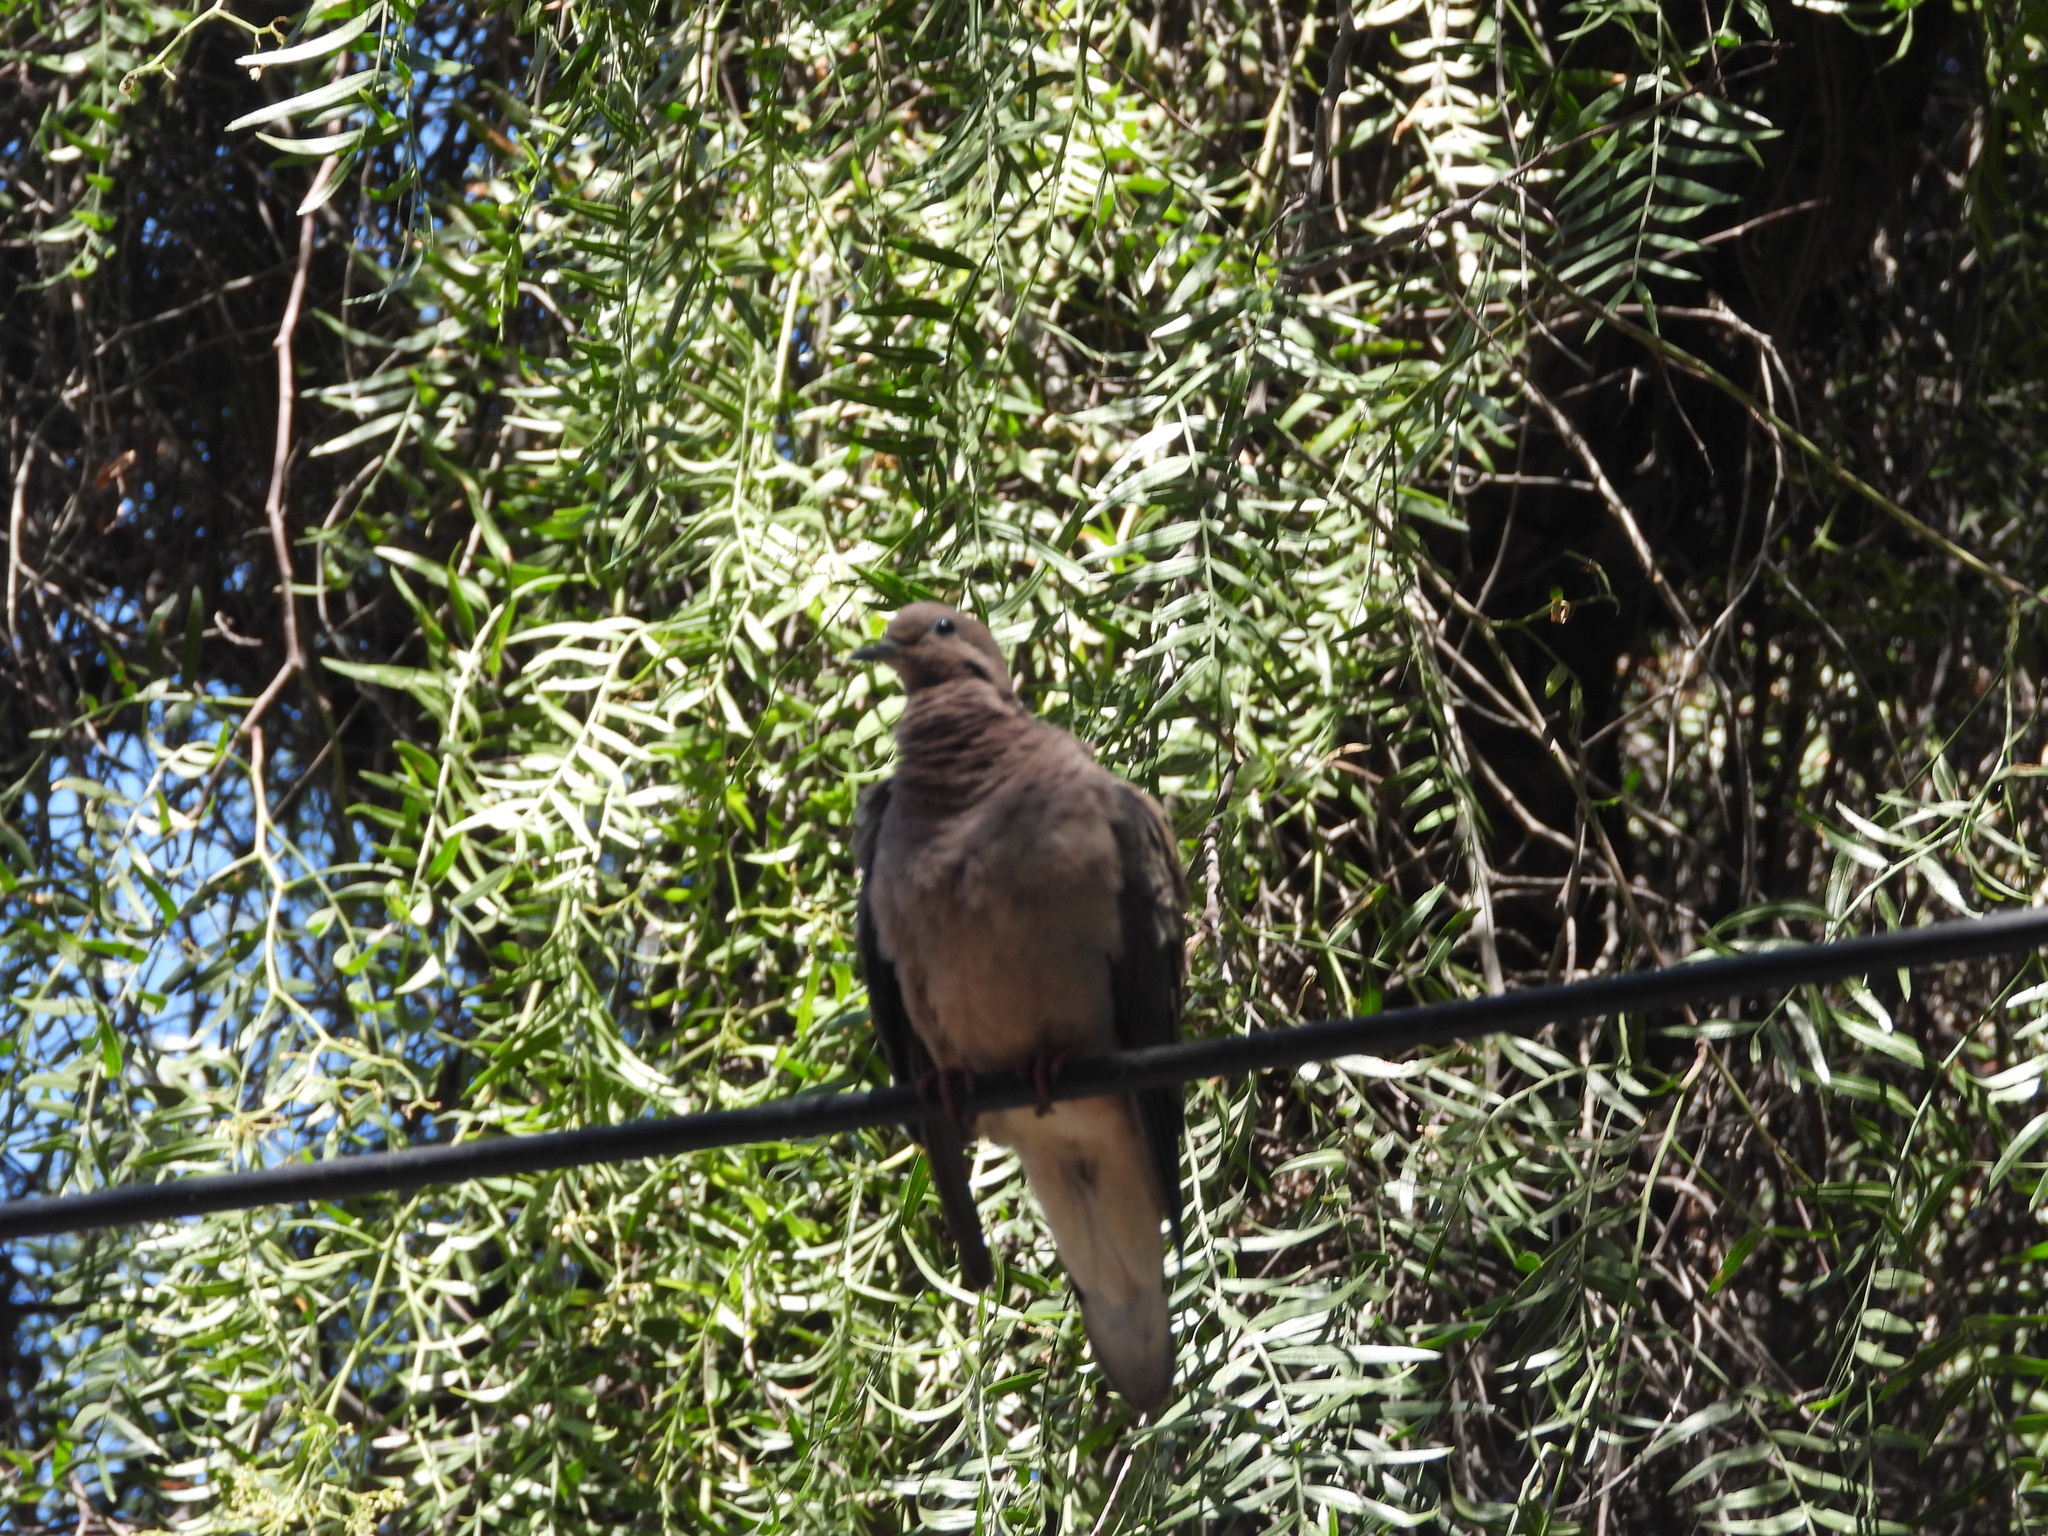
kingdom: Animalia
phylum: Chordata
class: Aves
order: Columbiformes
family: Columbidae
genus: Zenaida
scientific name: Zenaida auriculata
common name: Eared dove
